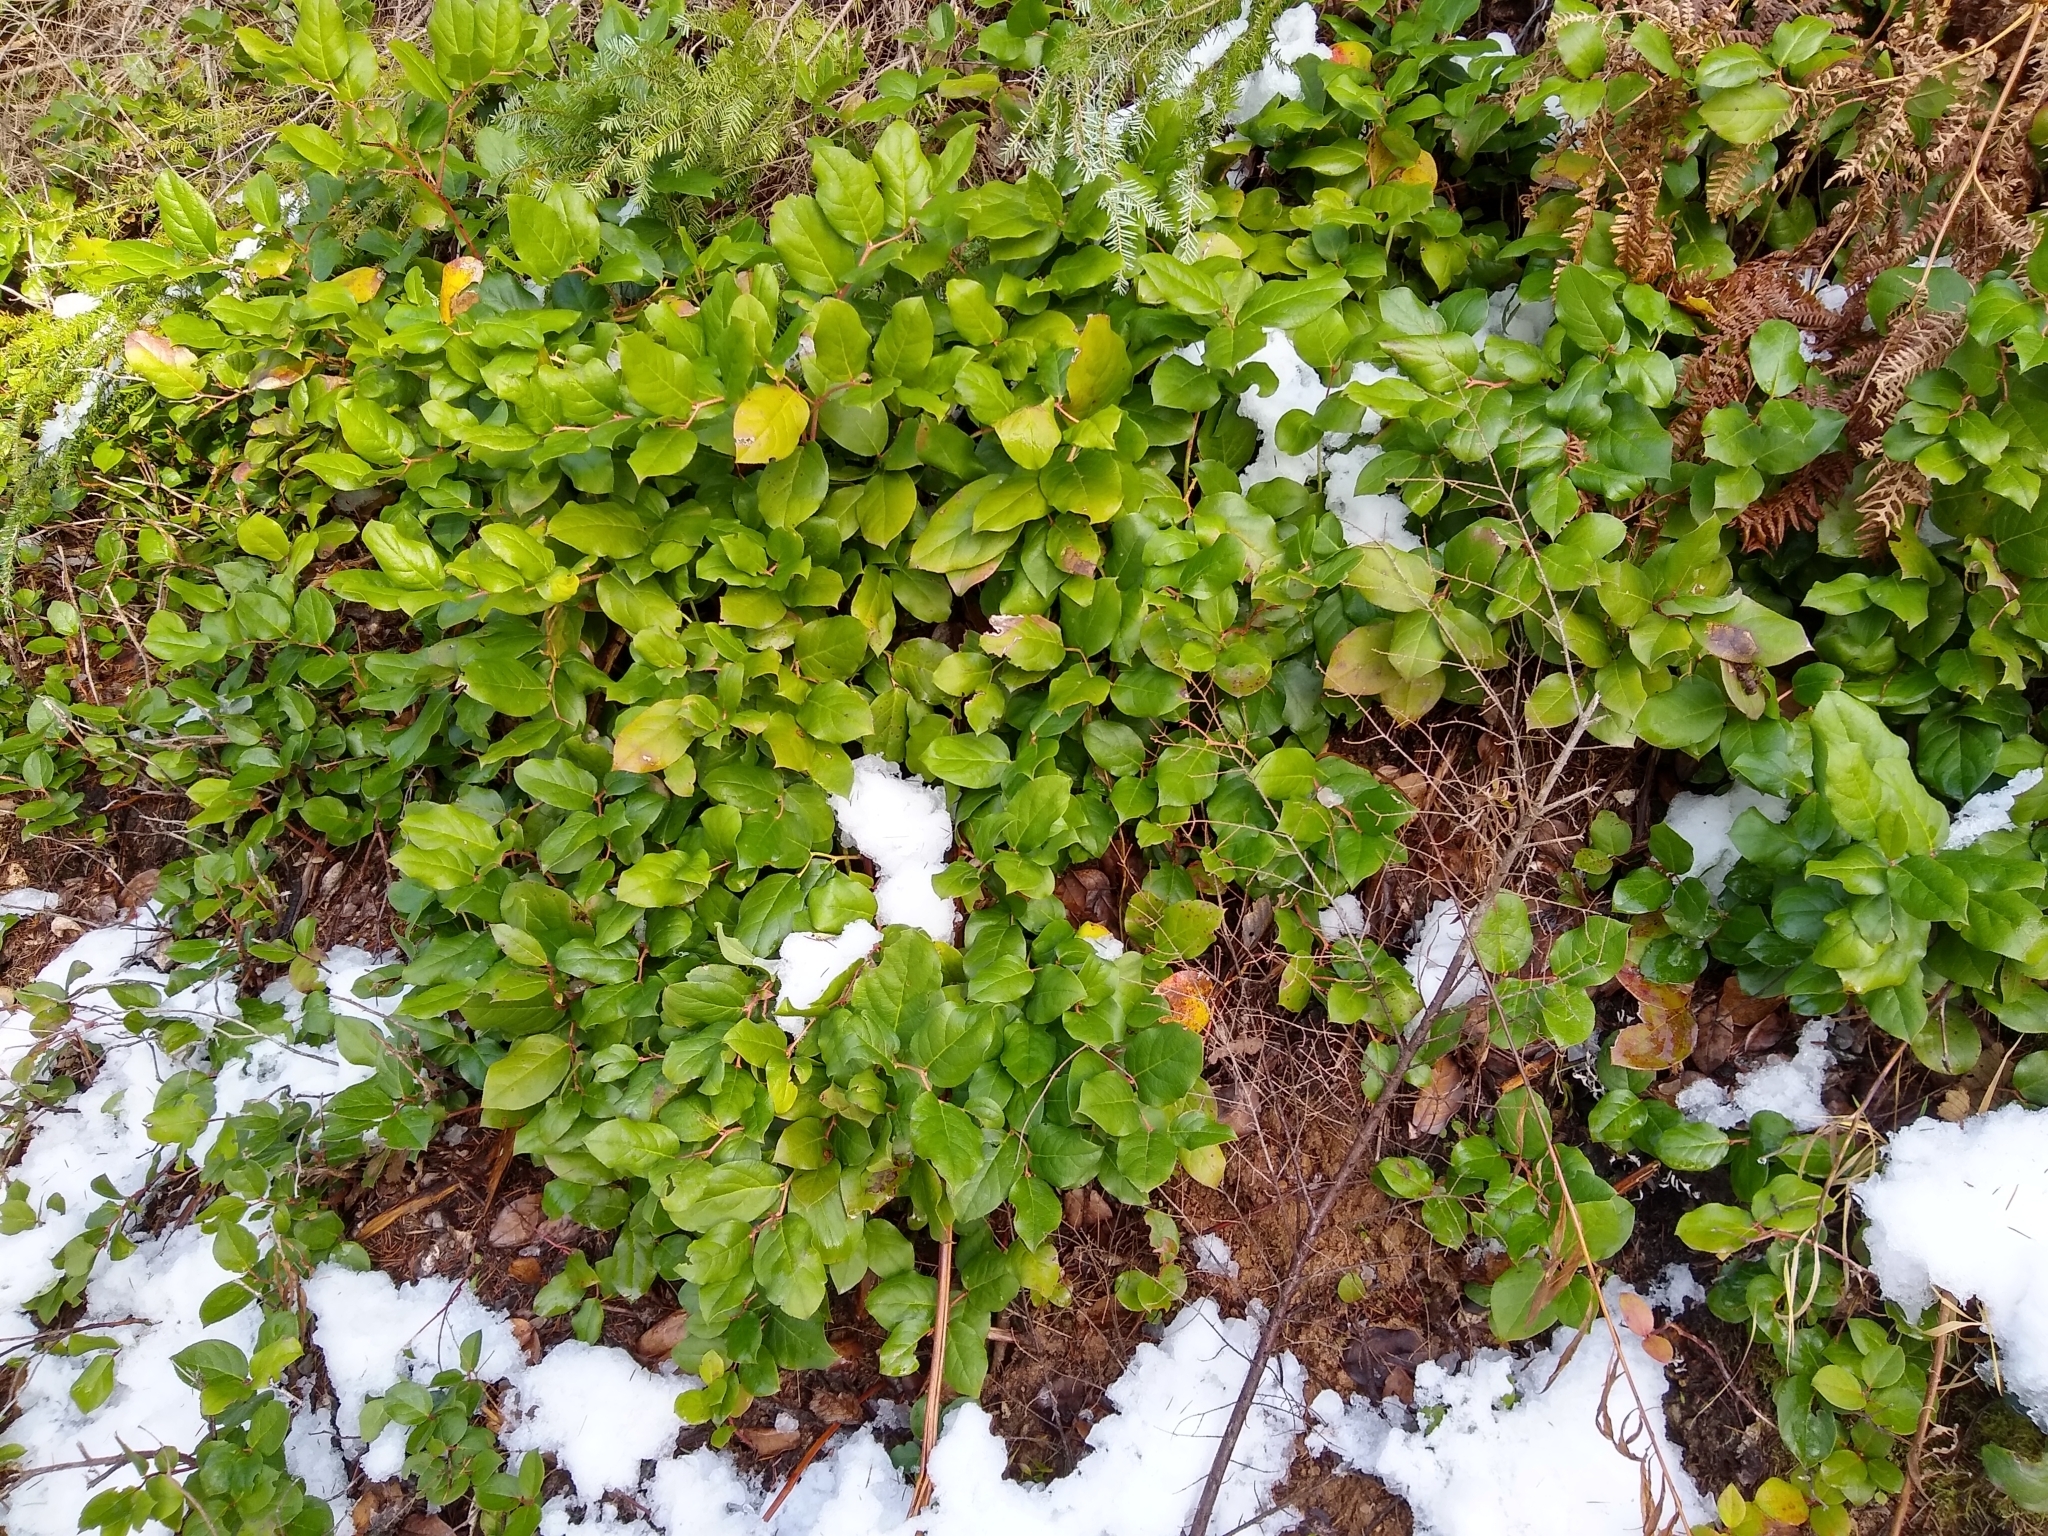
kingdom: Plantae
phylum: Tracheophyta
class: Magnoliopsida
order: Ericales
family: Ericaceae
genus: Gaultheria
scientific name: Gaultheria shallon
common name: Shallon
